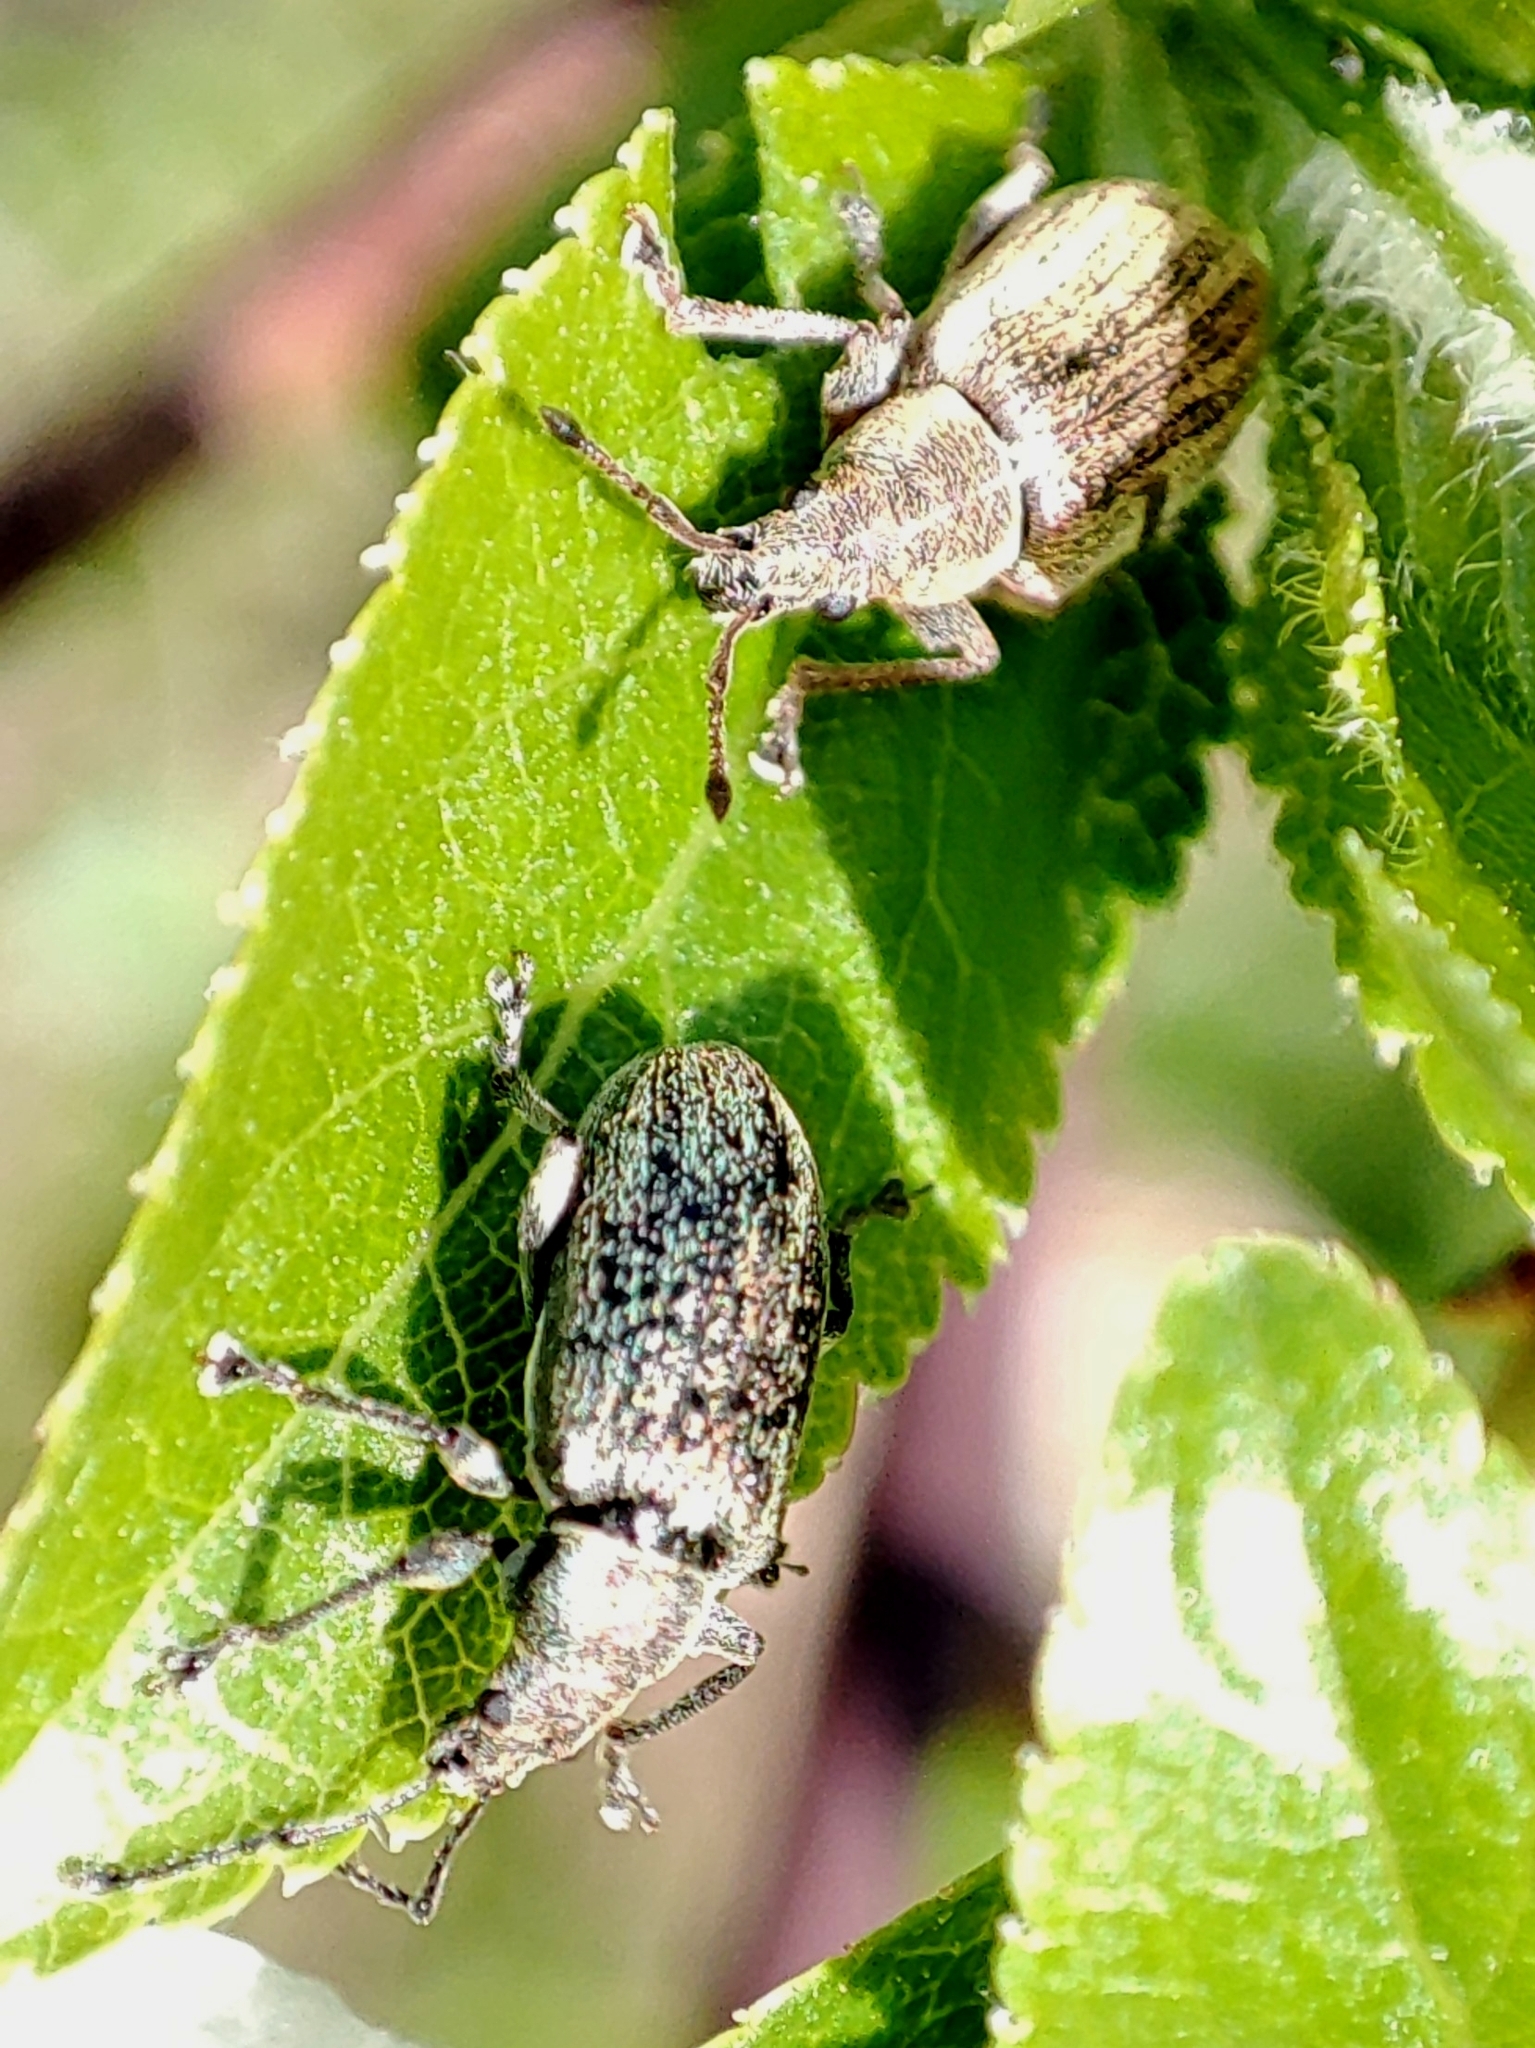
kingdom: Animalia
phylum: Arthropoda
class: Insecta
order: Coleoptera
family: Curculionidae
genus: Phyllobius
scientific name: Phyllobius pyri
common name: Common leaf weevil
